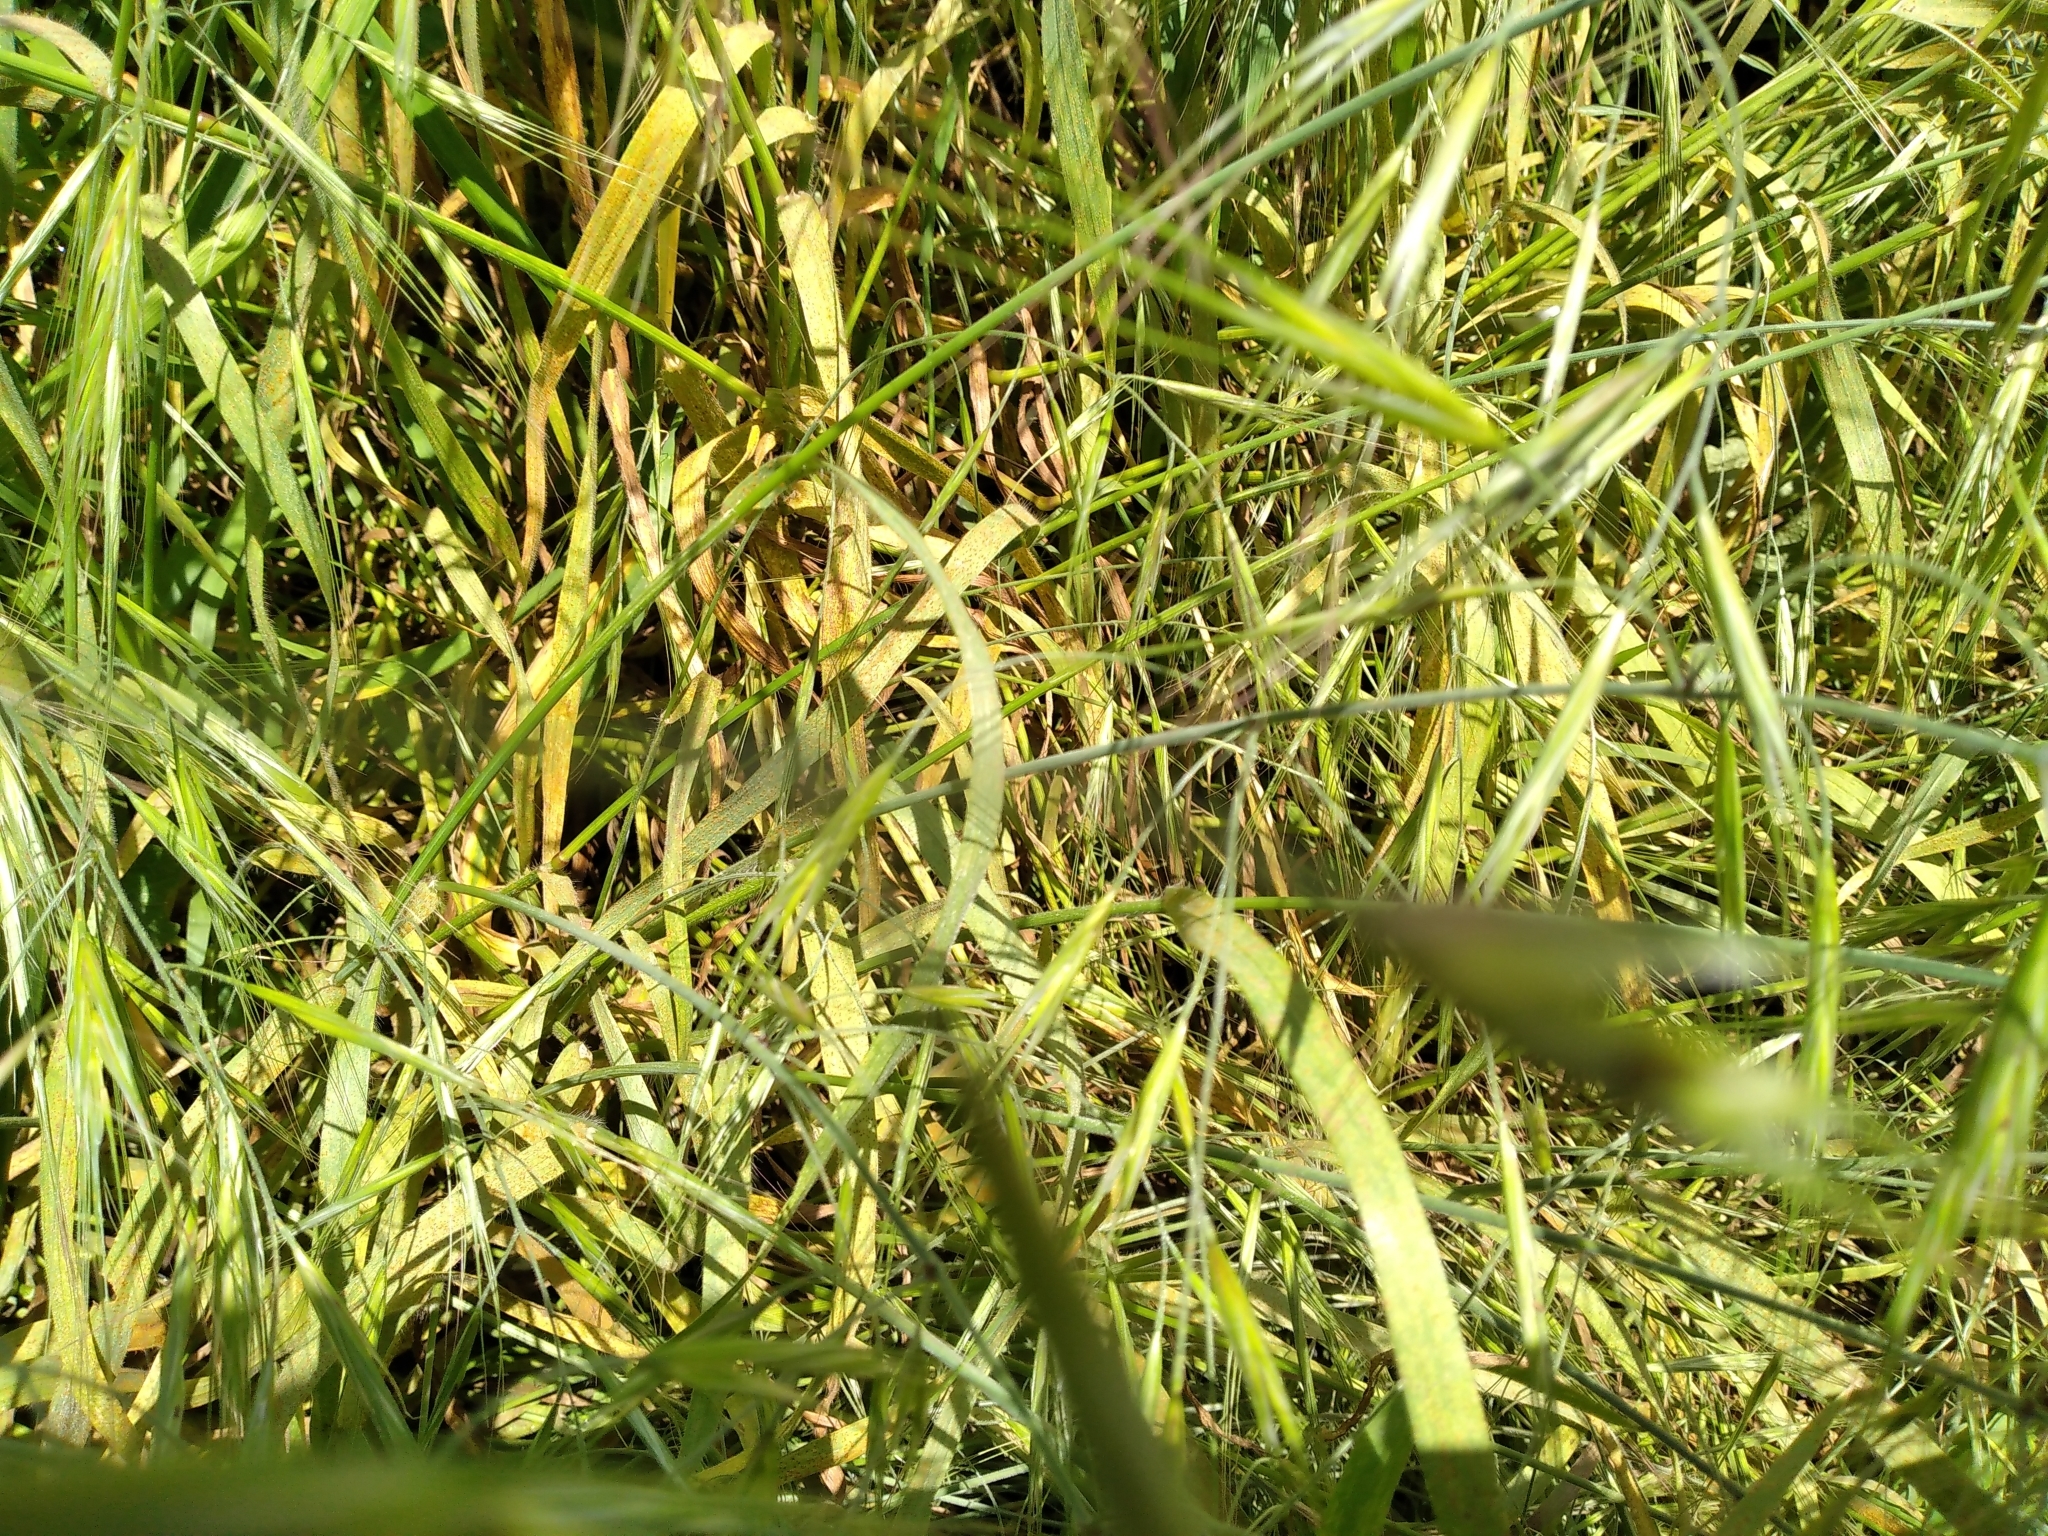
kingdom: Plantae
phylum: Tracheophyta
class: Liliopsida
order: Poales
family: Poaceae
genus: Bromus
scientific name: Bromus diandrus
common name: Ripgut brome
